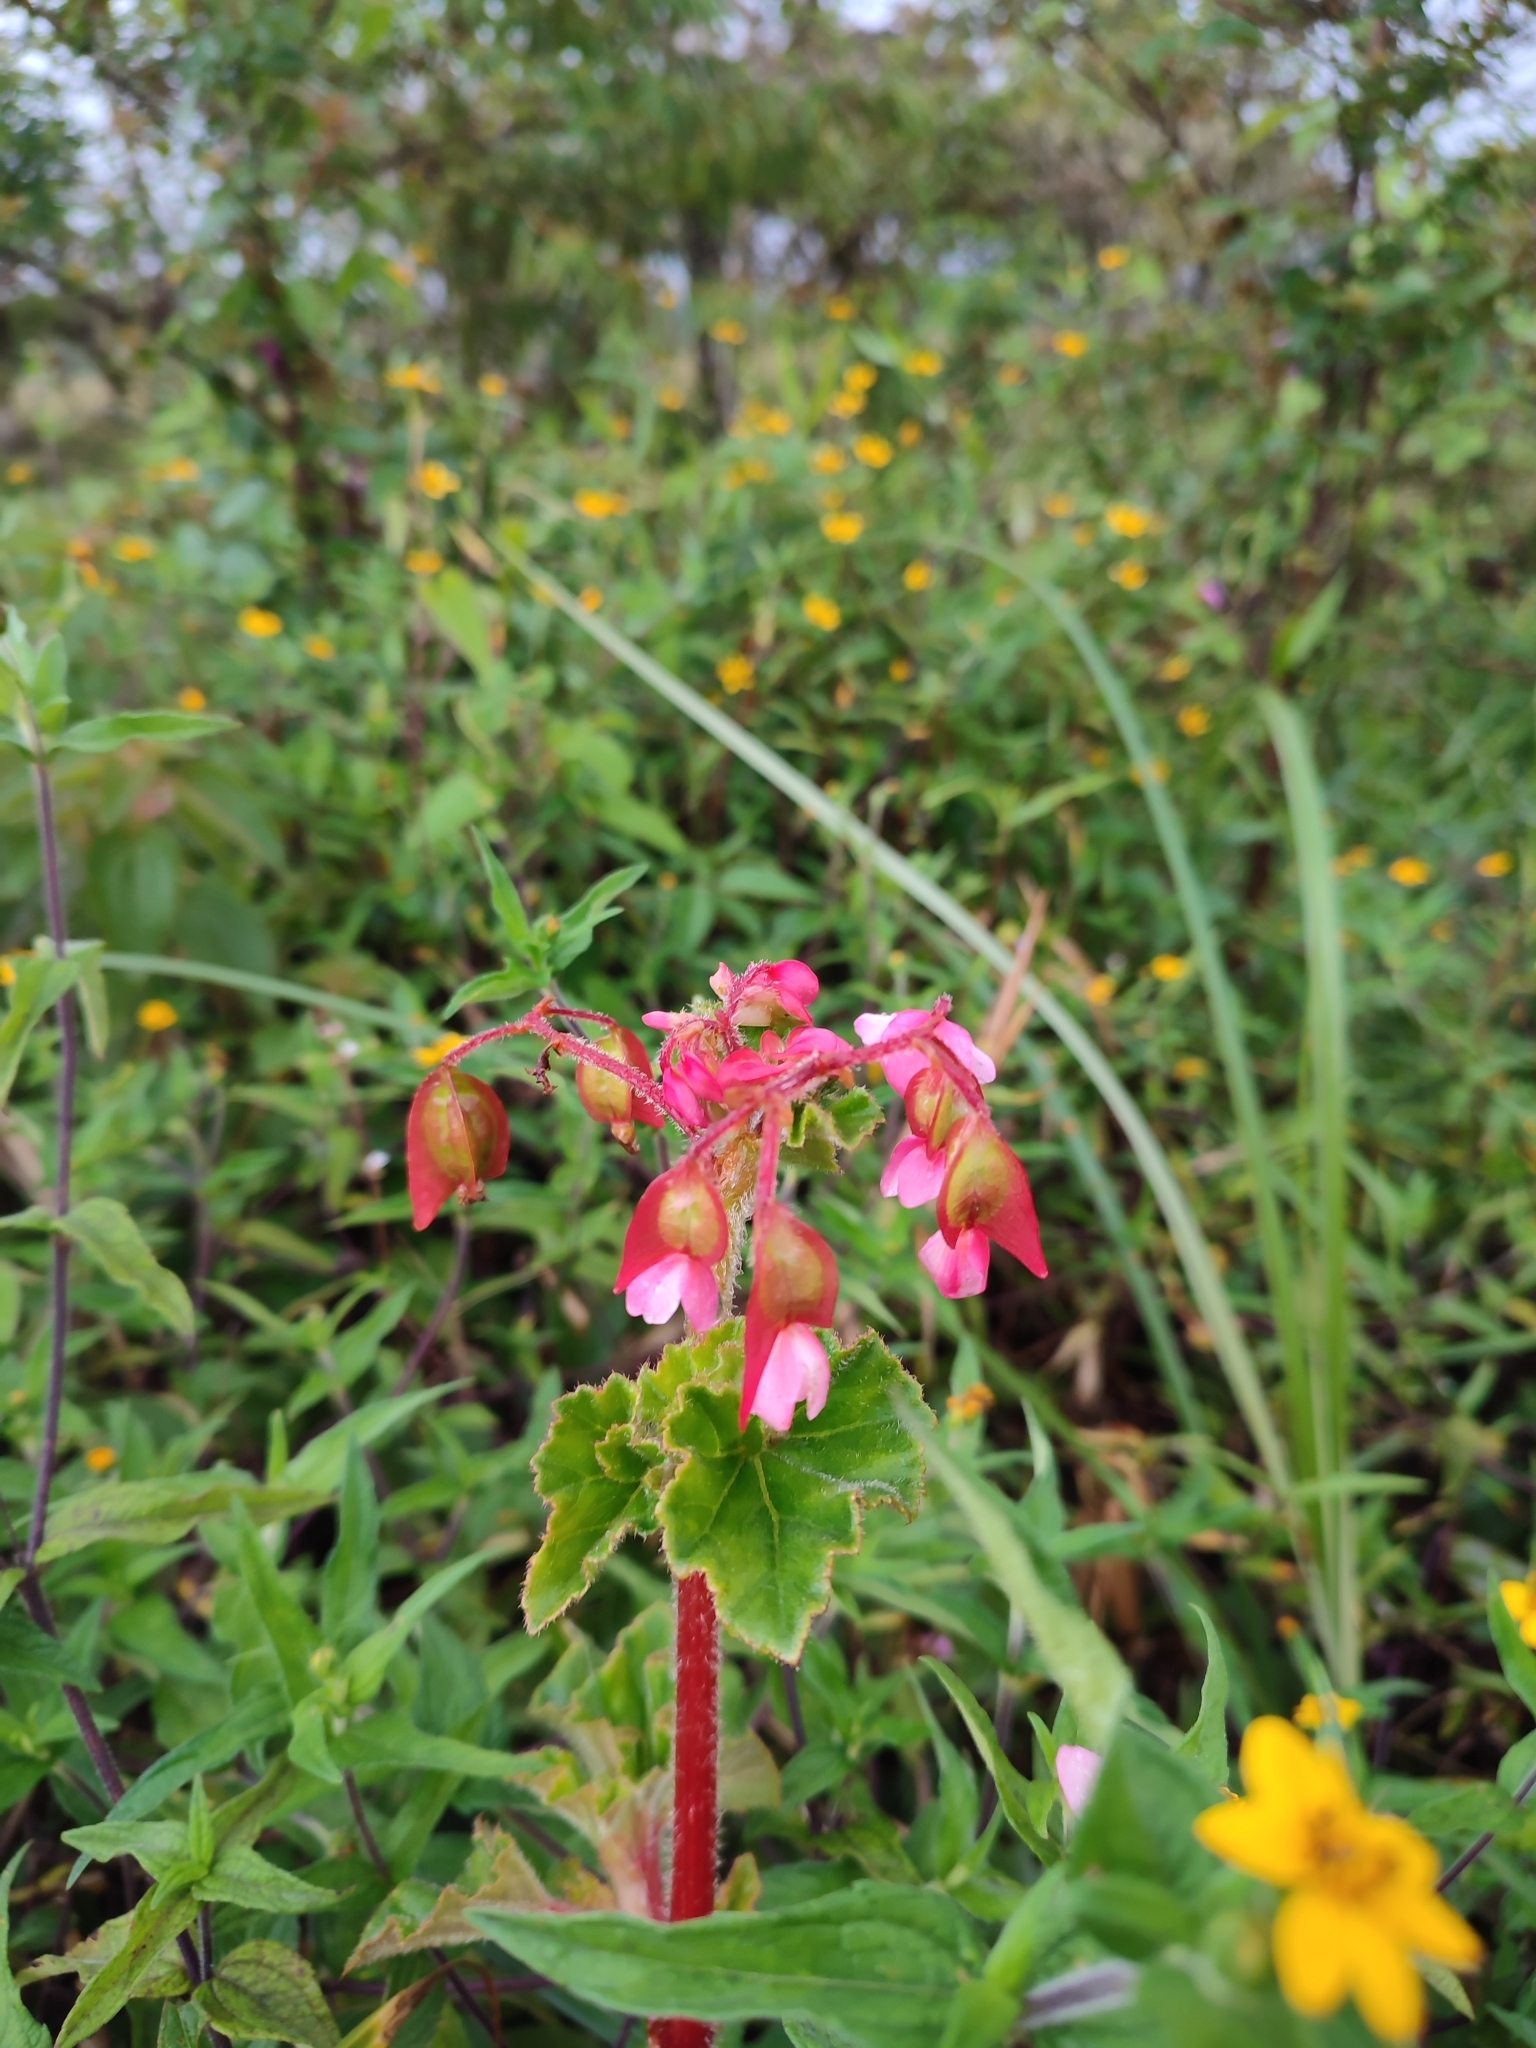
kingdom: Plantae
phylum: Tracheophyta
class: Magnoliopsida
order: Cucurbitales
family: Begoniaceae
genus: Begonia
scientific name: Begonia fischeri
